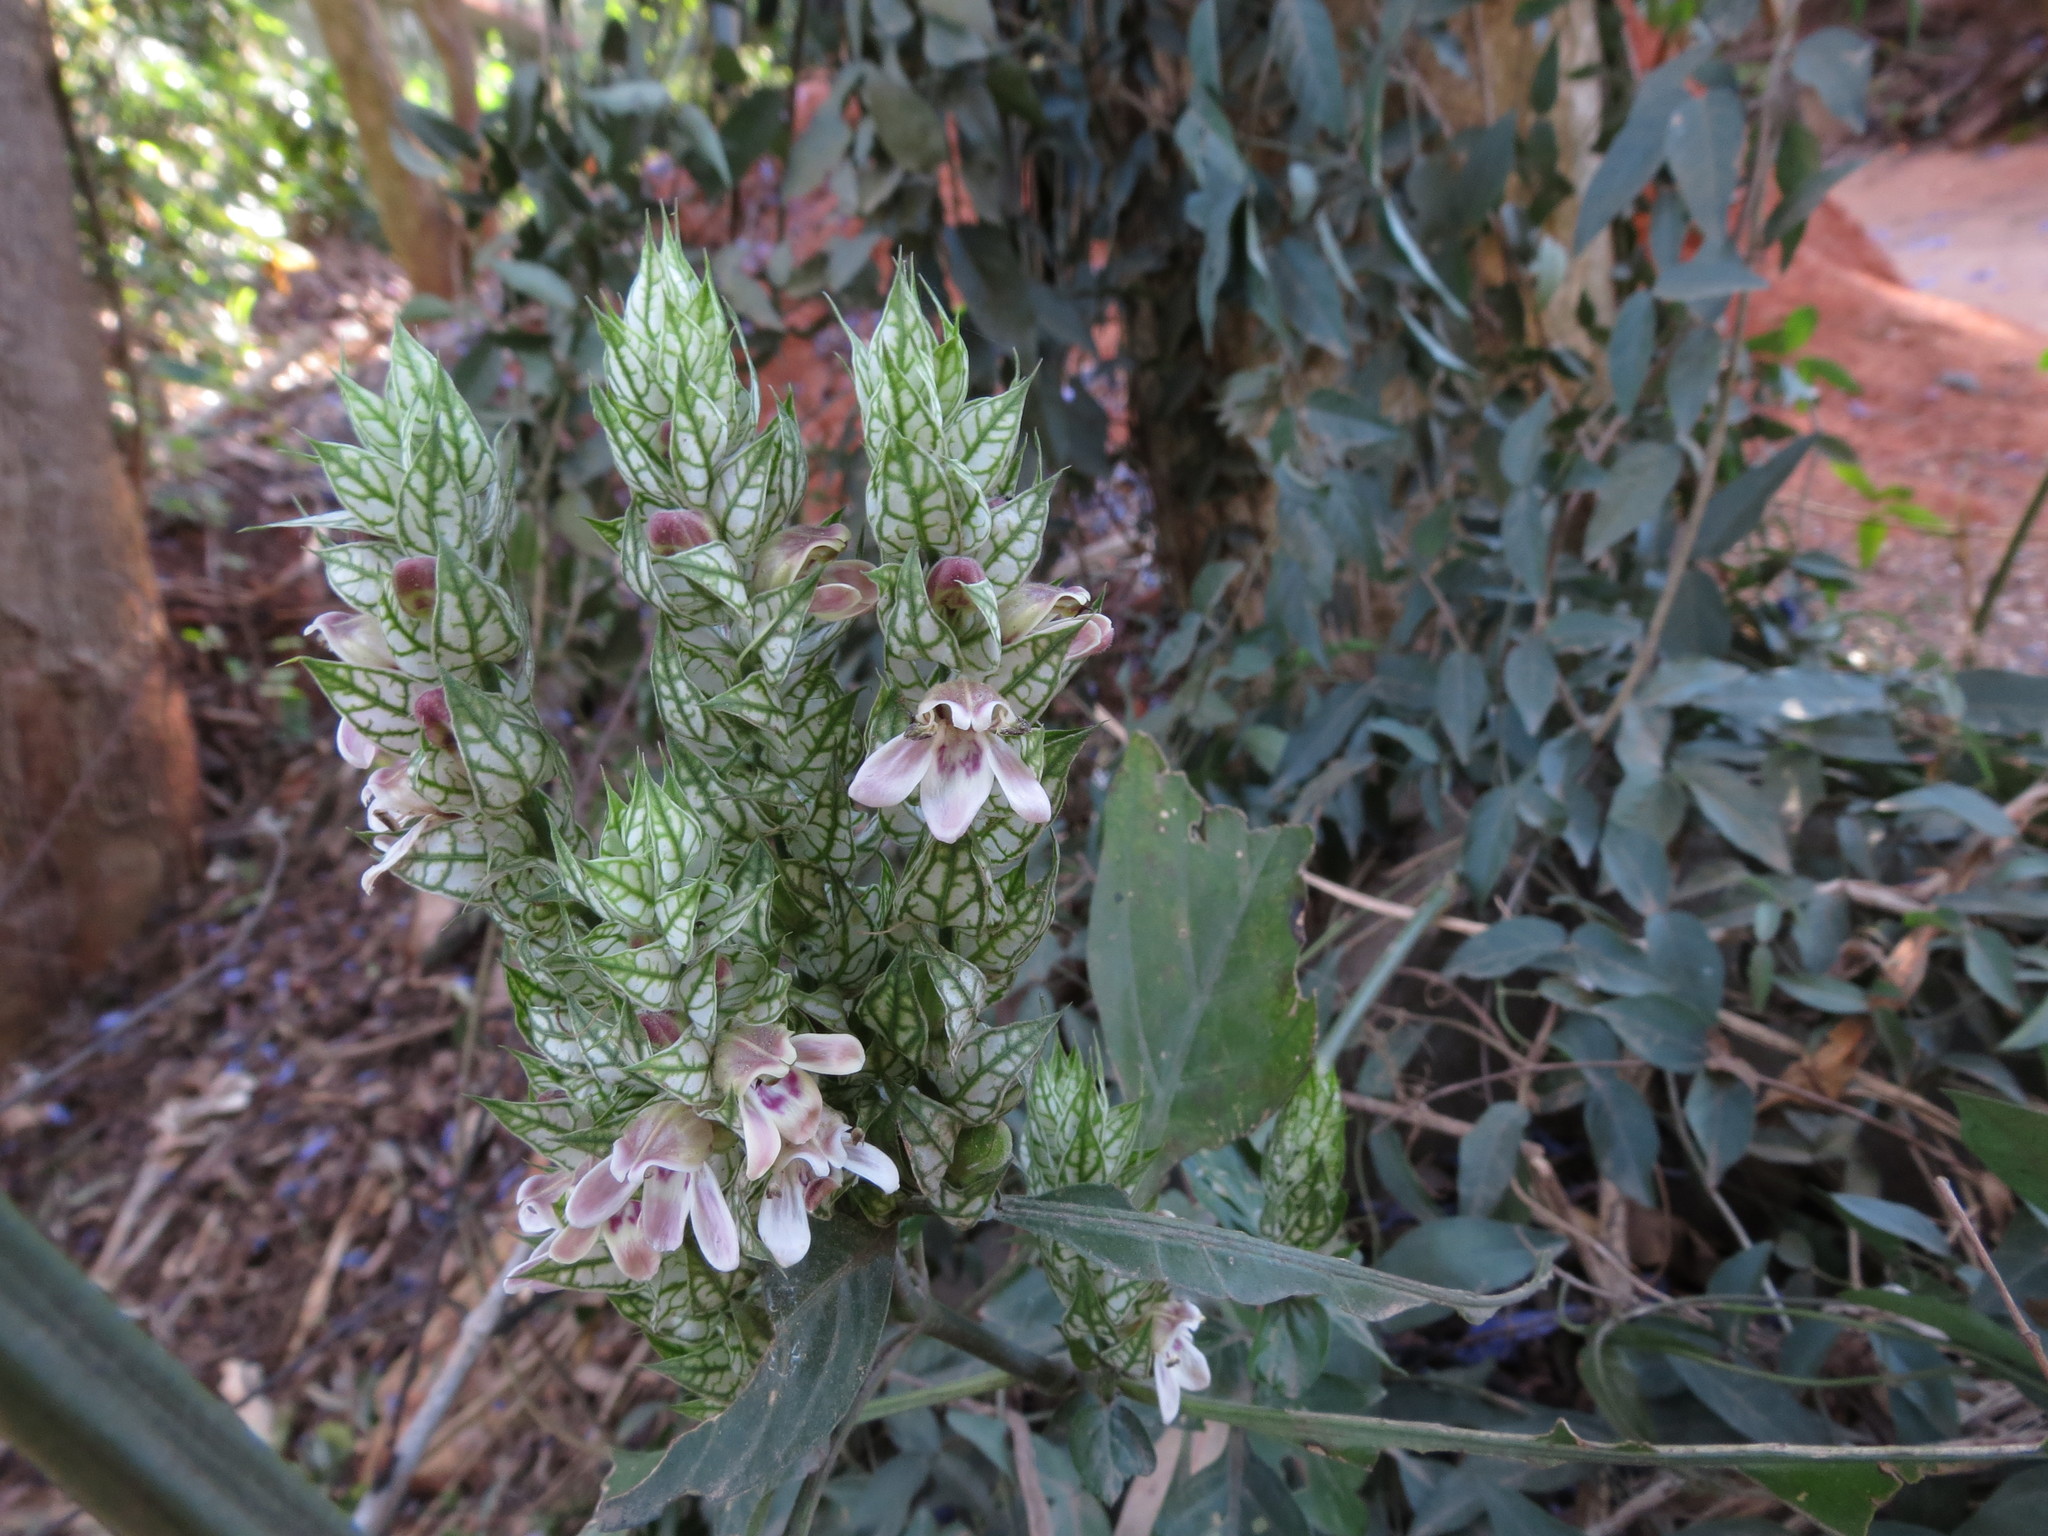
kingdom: Plantae
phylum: Tracheophyta
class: Magnoliopsida
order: Lamiales
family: Acanthaceae
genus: Justicia
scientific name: Justicia betonica
